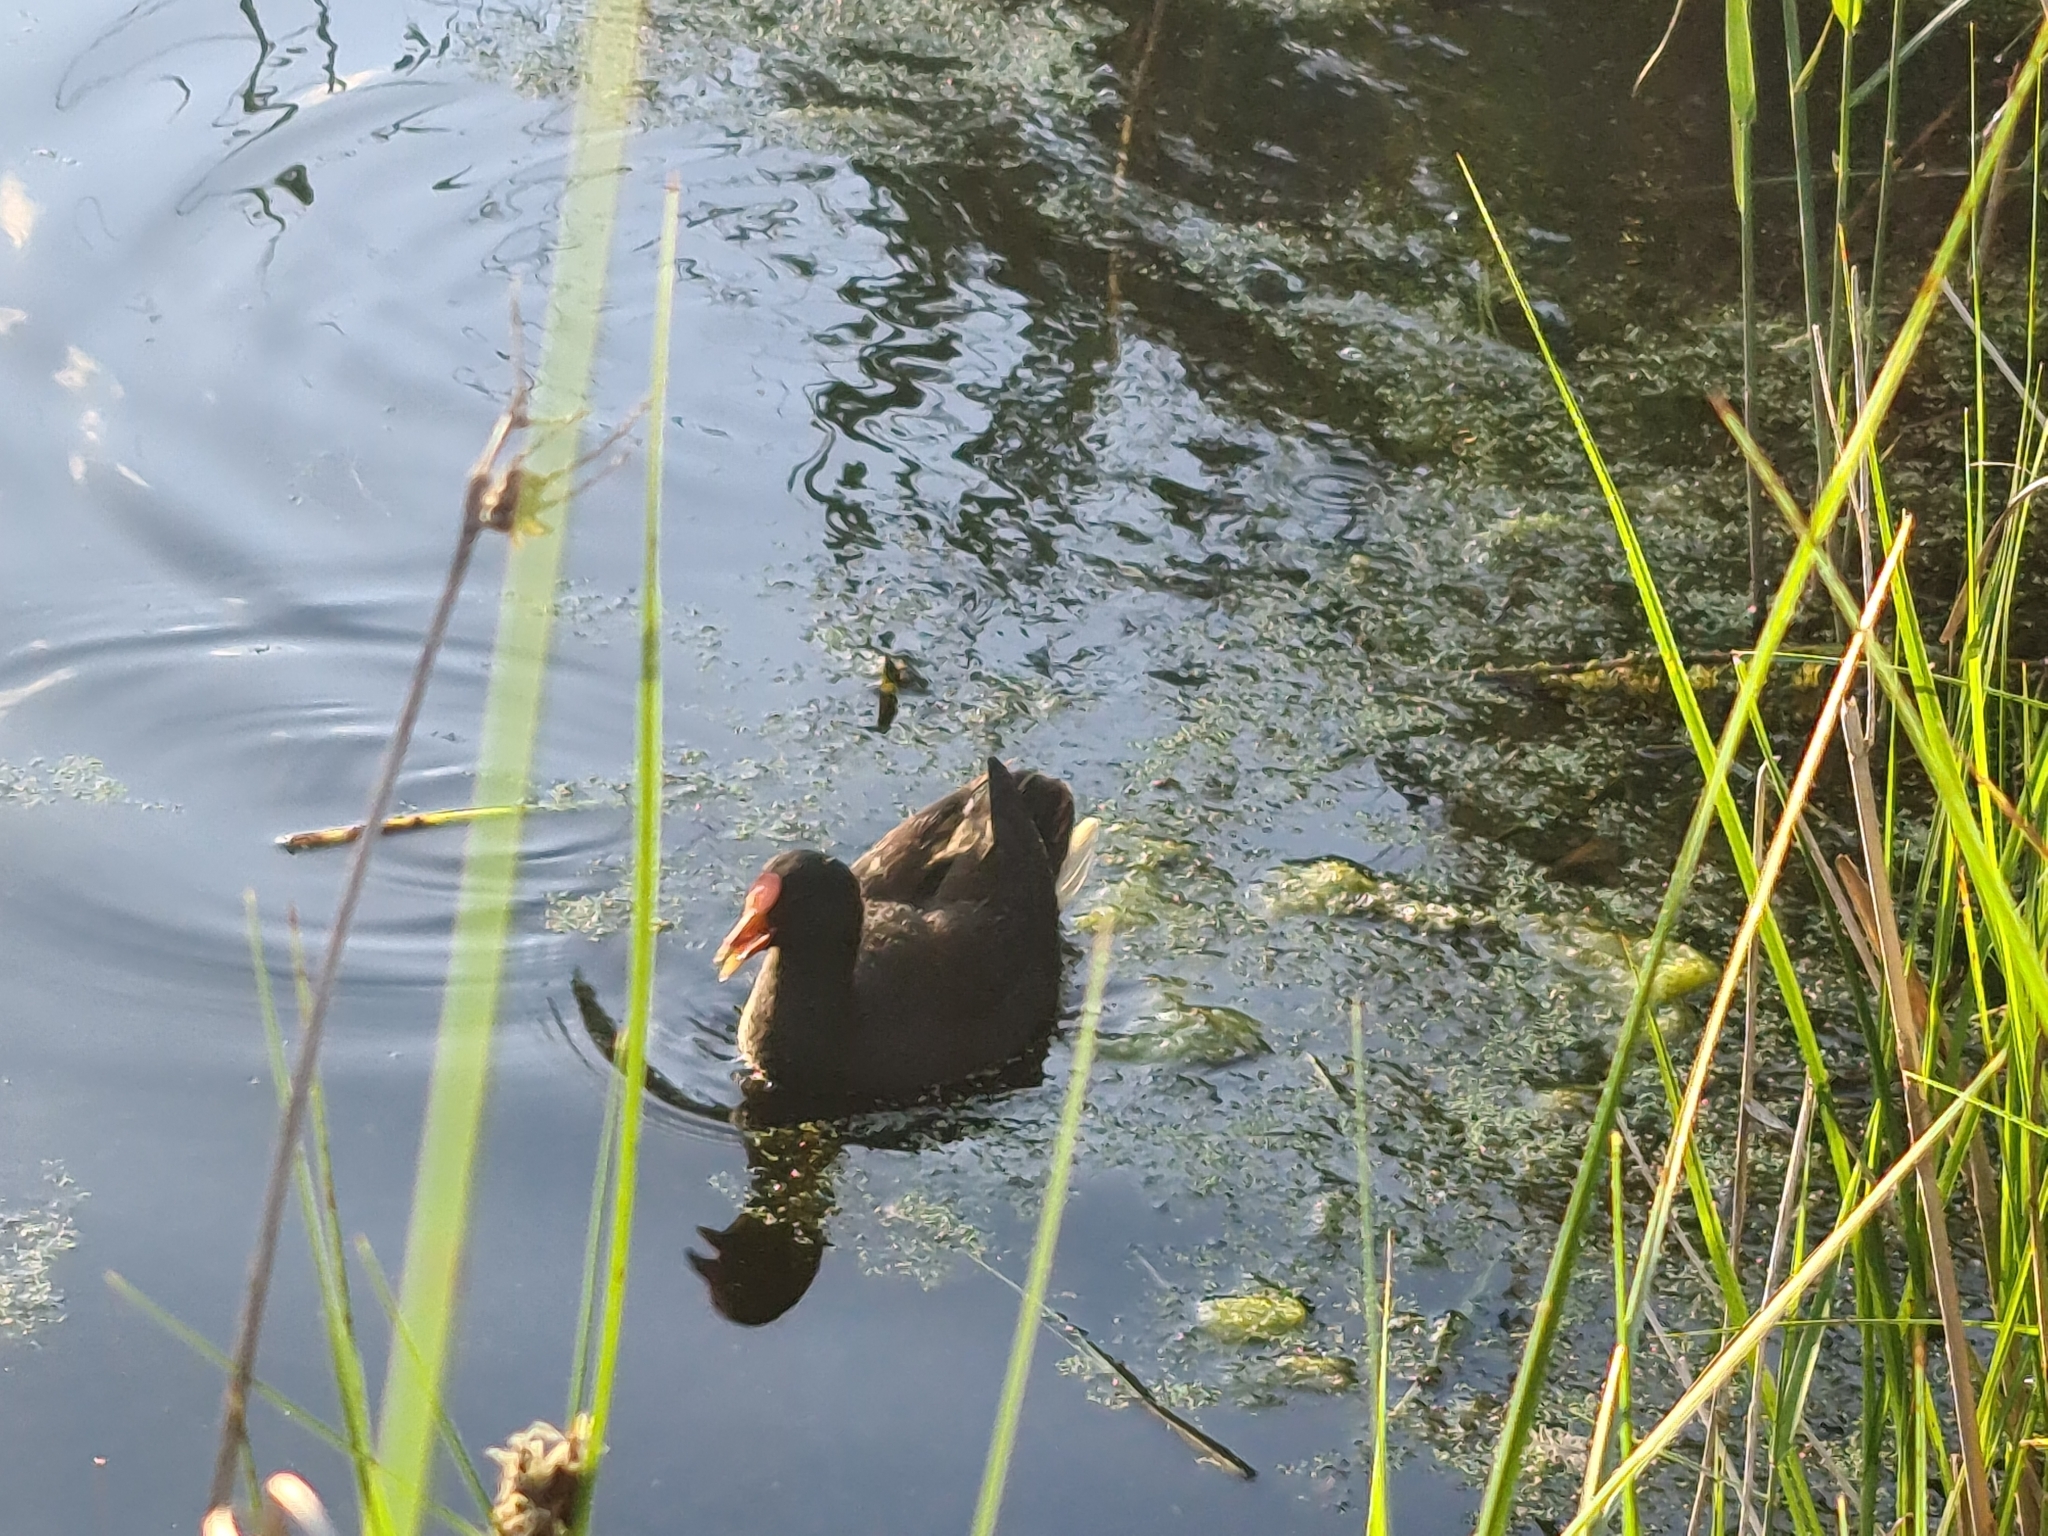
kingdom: Animalia
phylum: Chordata
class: Aves
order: Gruiformes
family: Rallidae
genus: Gallinula
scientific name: Gallinula tenebrosa
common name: Dusky moorhen
